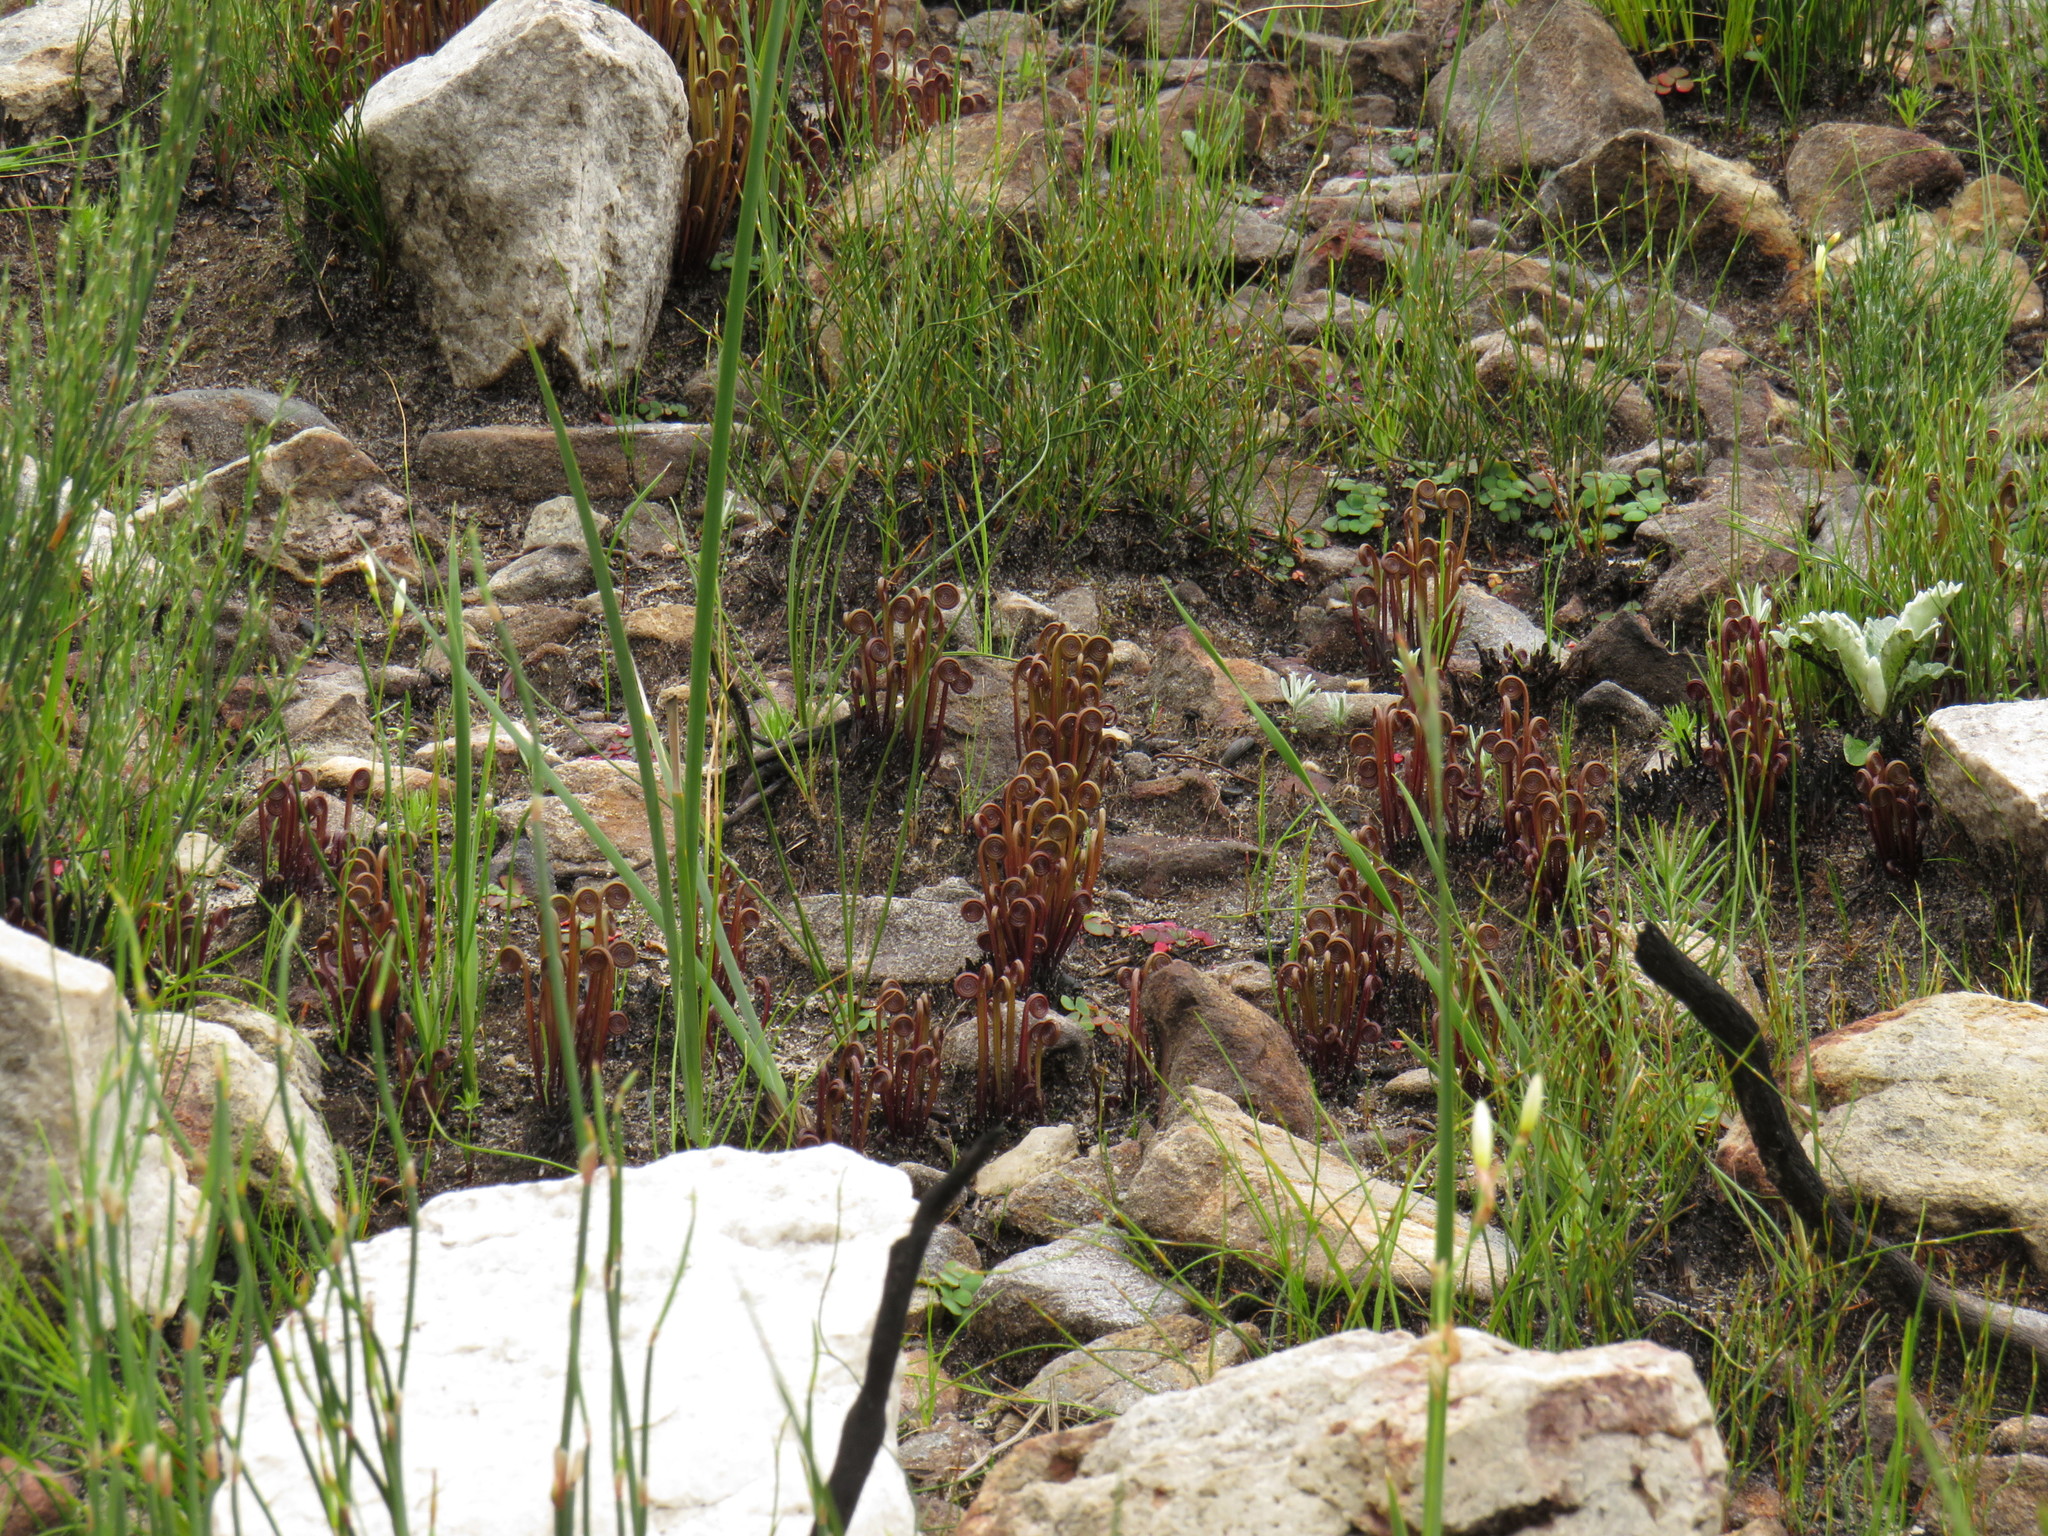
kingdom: Plantae
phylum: Tracheophyta
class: Polypodiopsida
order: Schizaeales
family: Schizaeaceae
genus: Schizaea
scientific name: Schizaea pectinata
